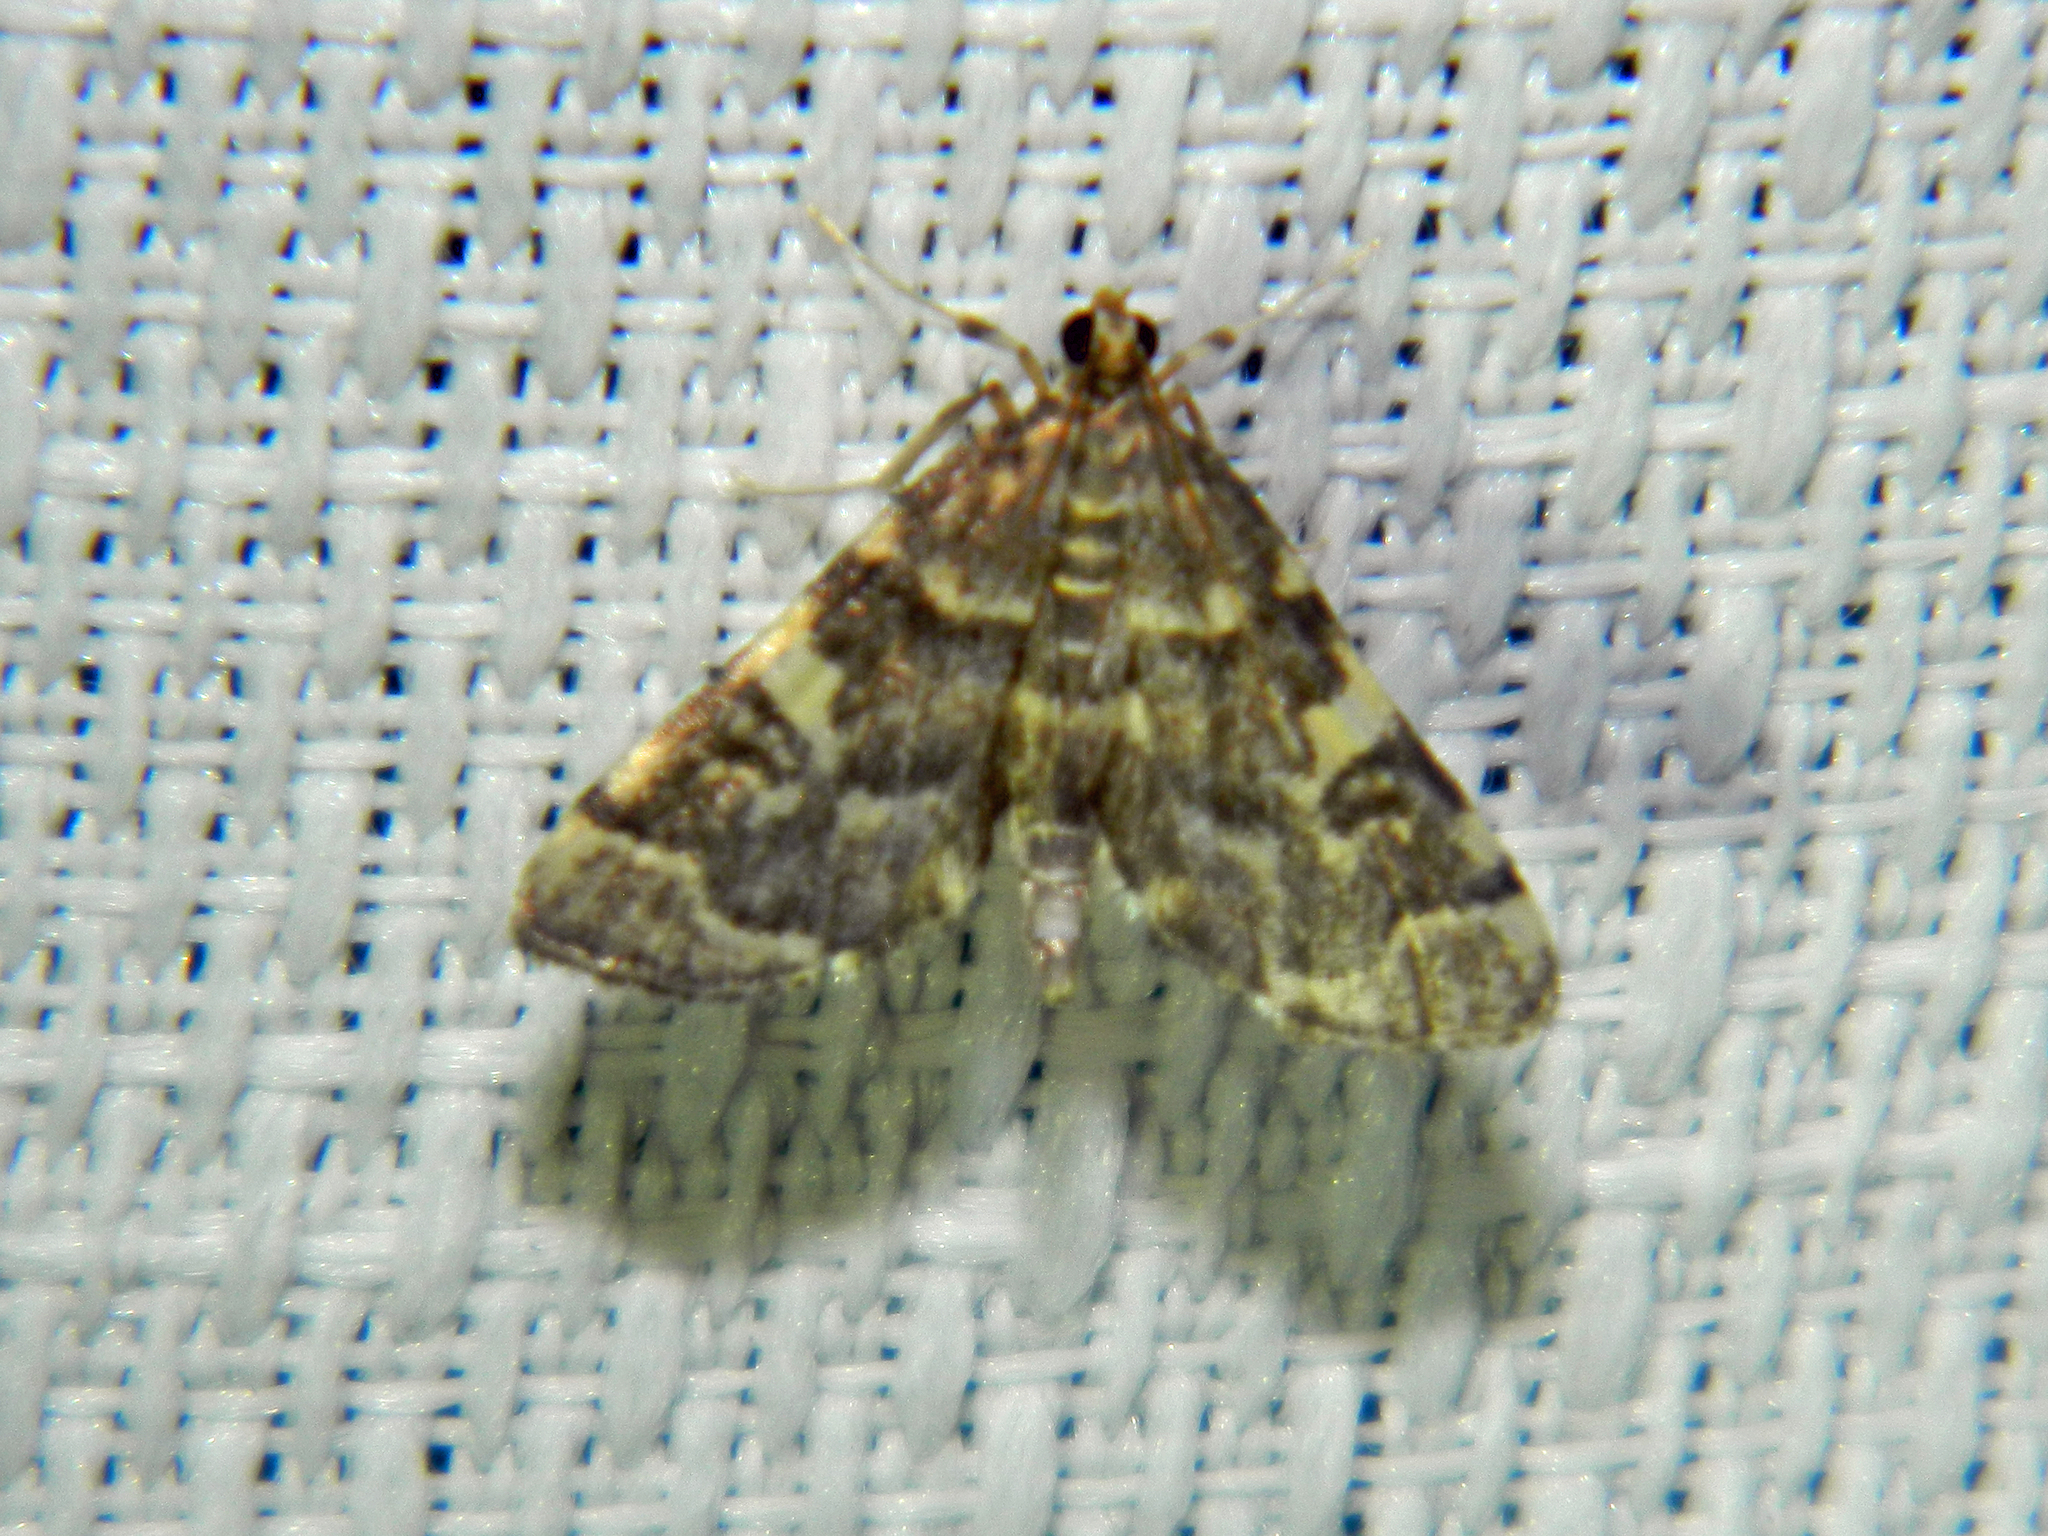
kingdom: Animalia
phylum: Arthropoda
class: Insecta
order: Lepidoptera
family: Crambidae
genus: Anageshna
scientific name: Anageshna primordialis
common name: Yellow-spotted webworm moth
